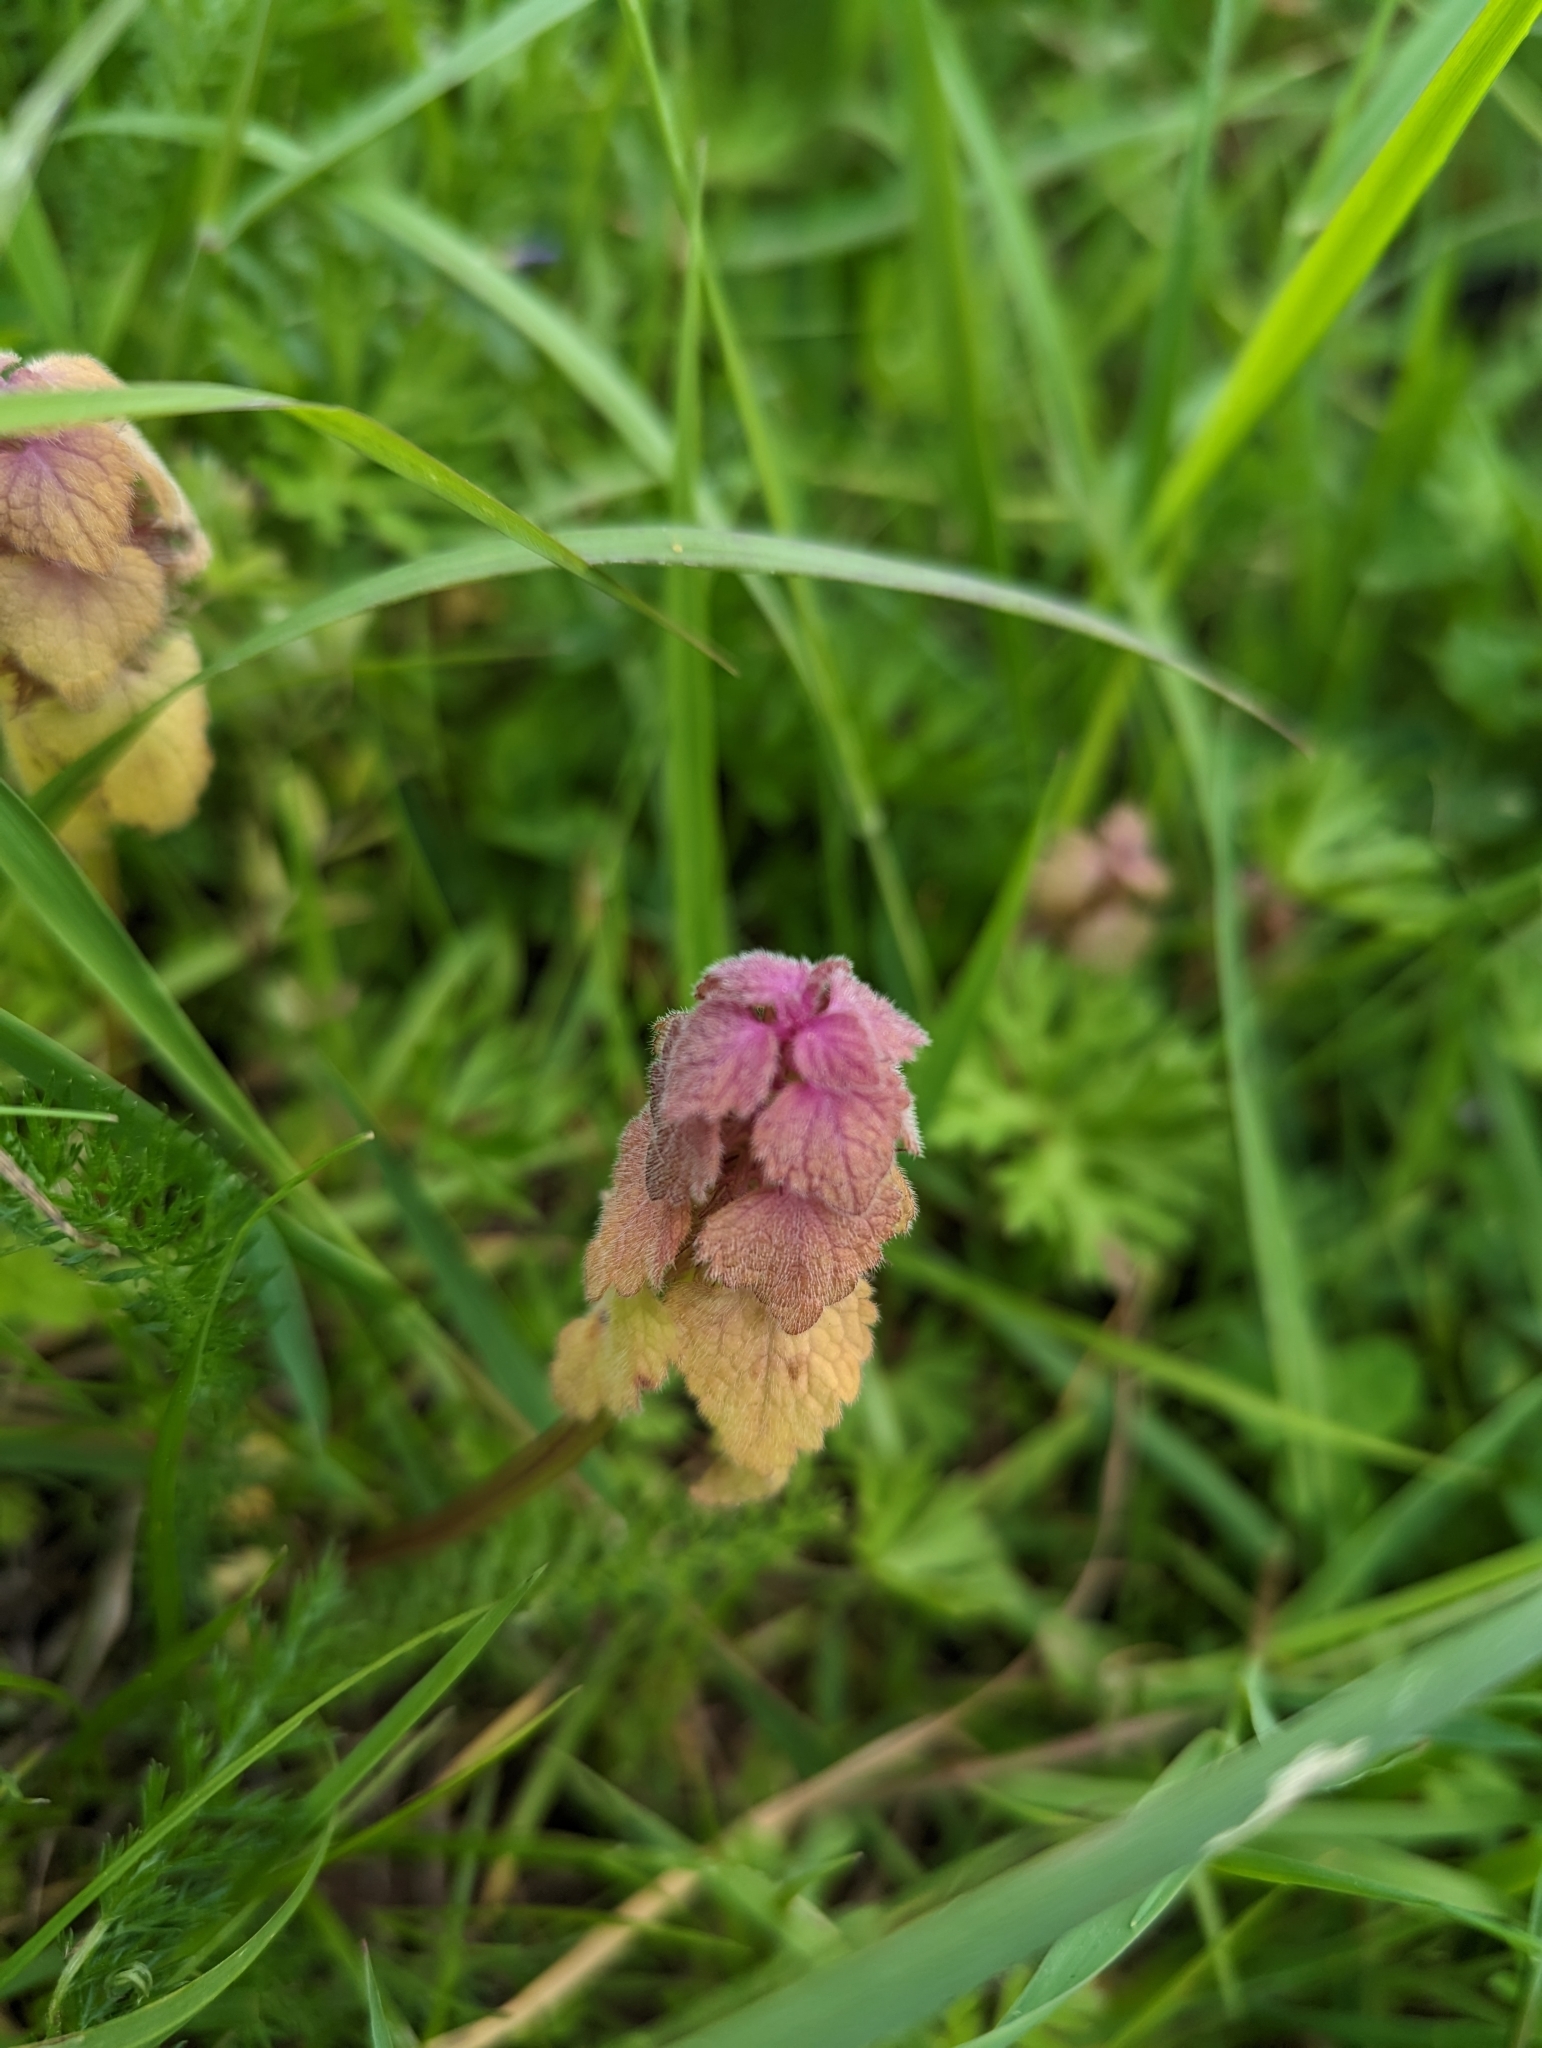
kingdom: Plantae
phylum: Tracheophyta
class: Magnoliopsida
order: Lamiales
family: Lamiaceae
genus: Lamium
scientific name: Lamium purpureum
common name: Red dead-nettle
